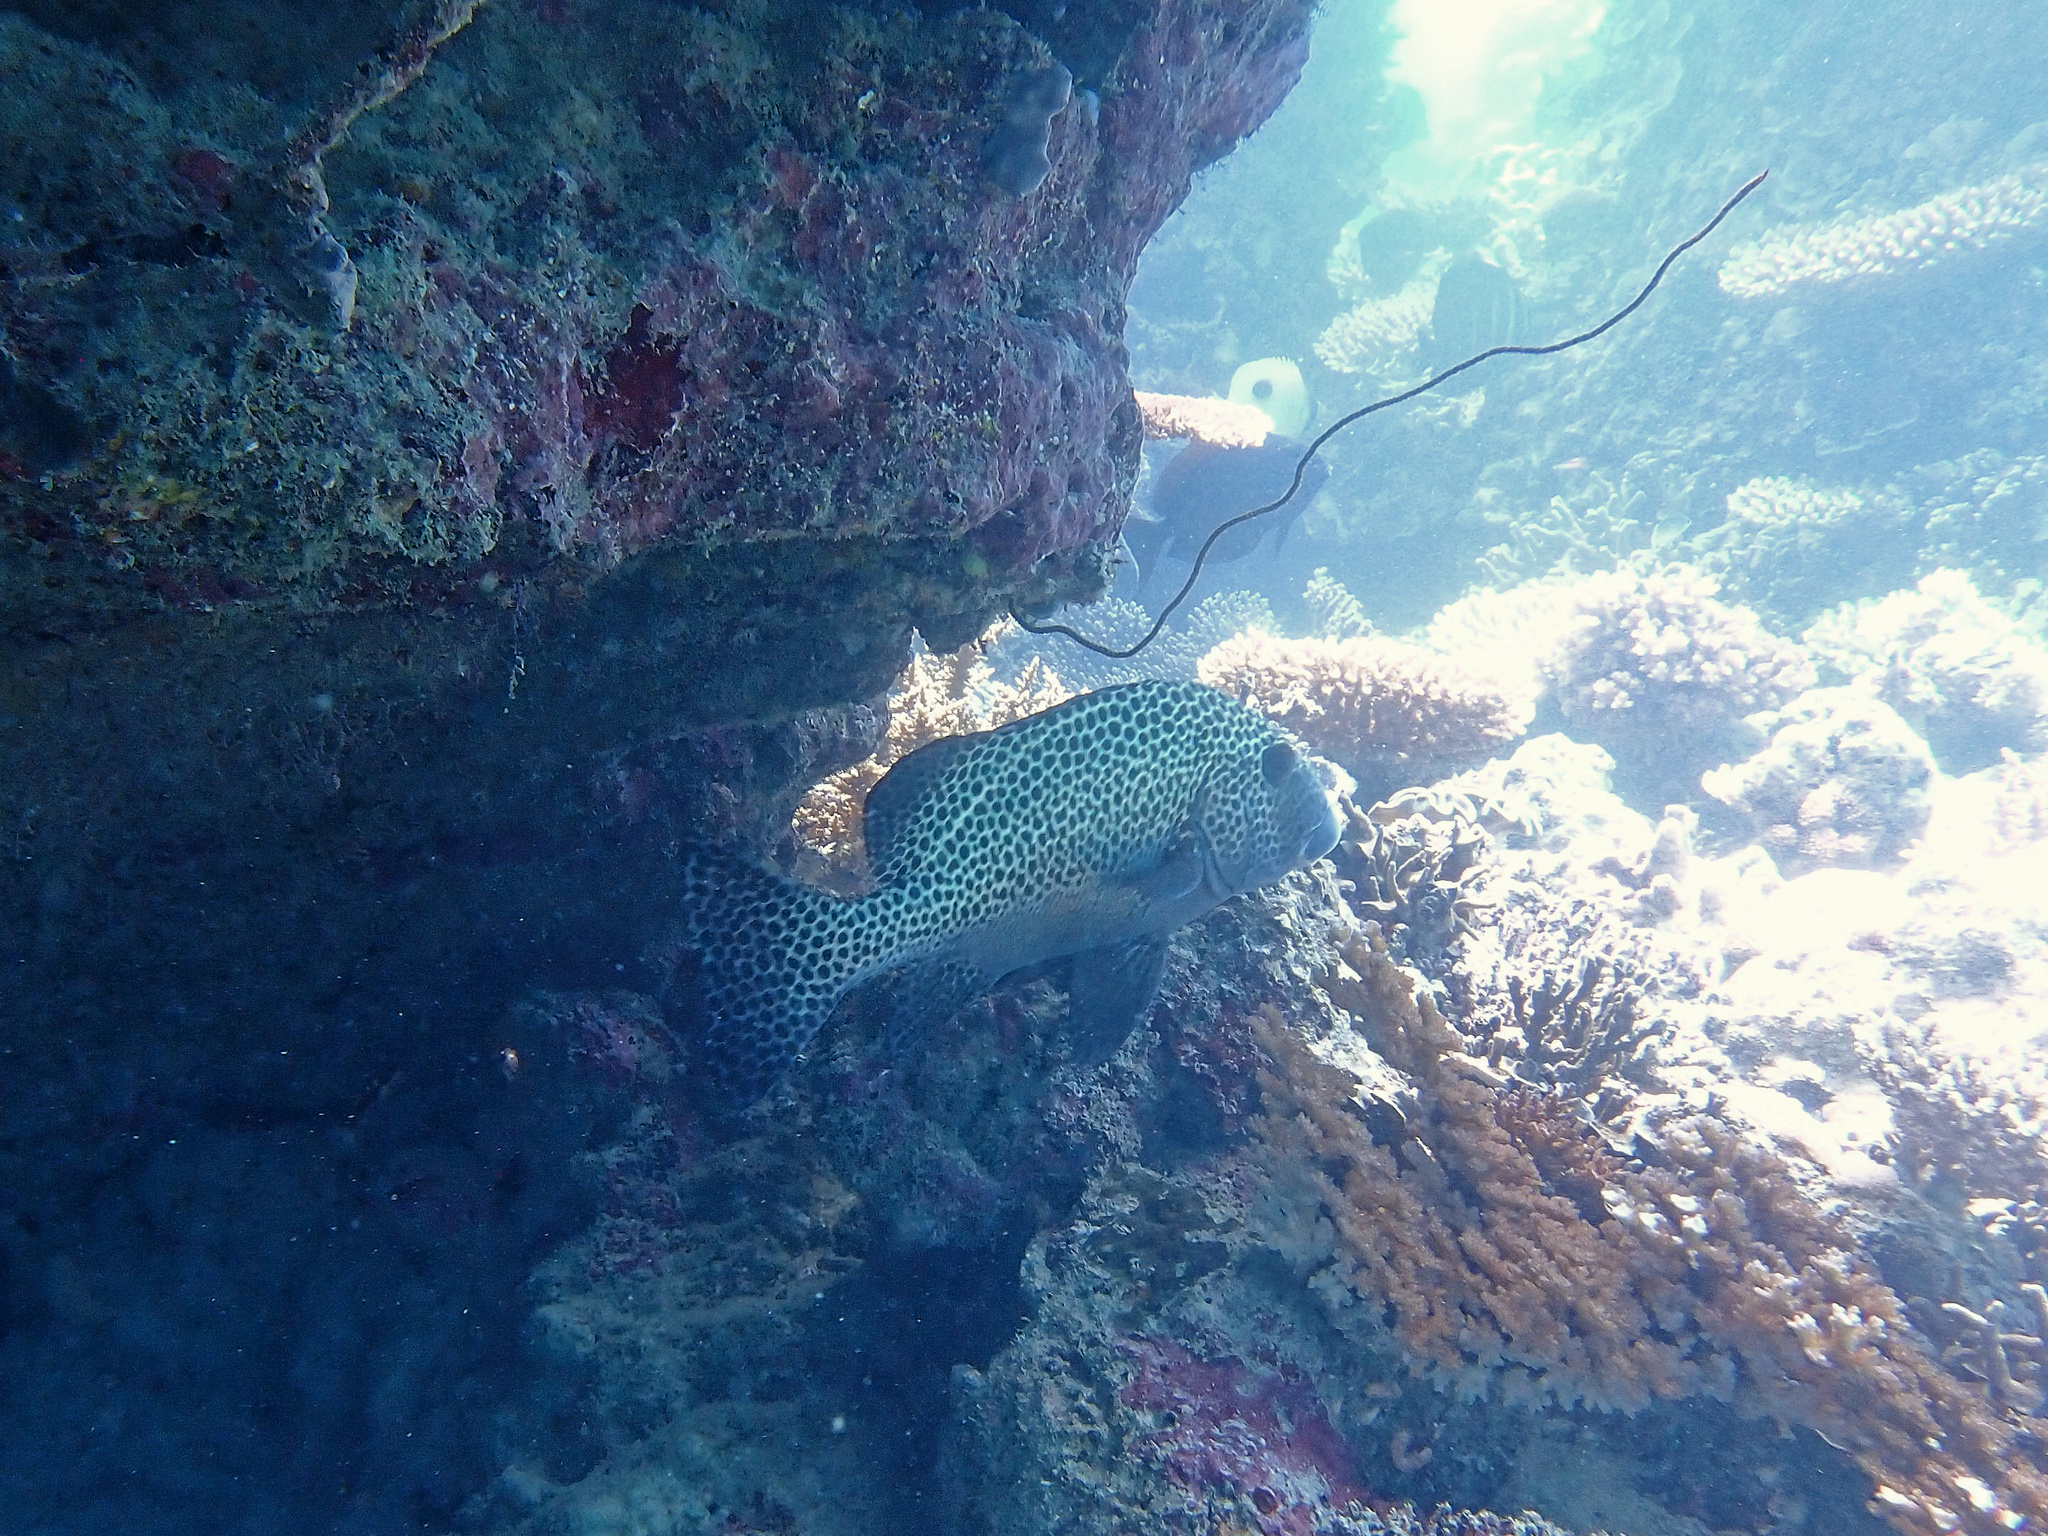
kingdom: Animalia
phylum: Chordata
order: Perciformes
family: Haemulidae
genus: Plectorhinchus
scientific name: Plectorhinchus chaetodonoides
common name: Harlequin sweetlips
